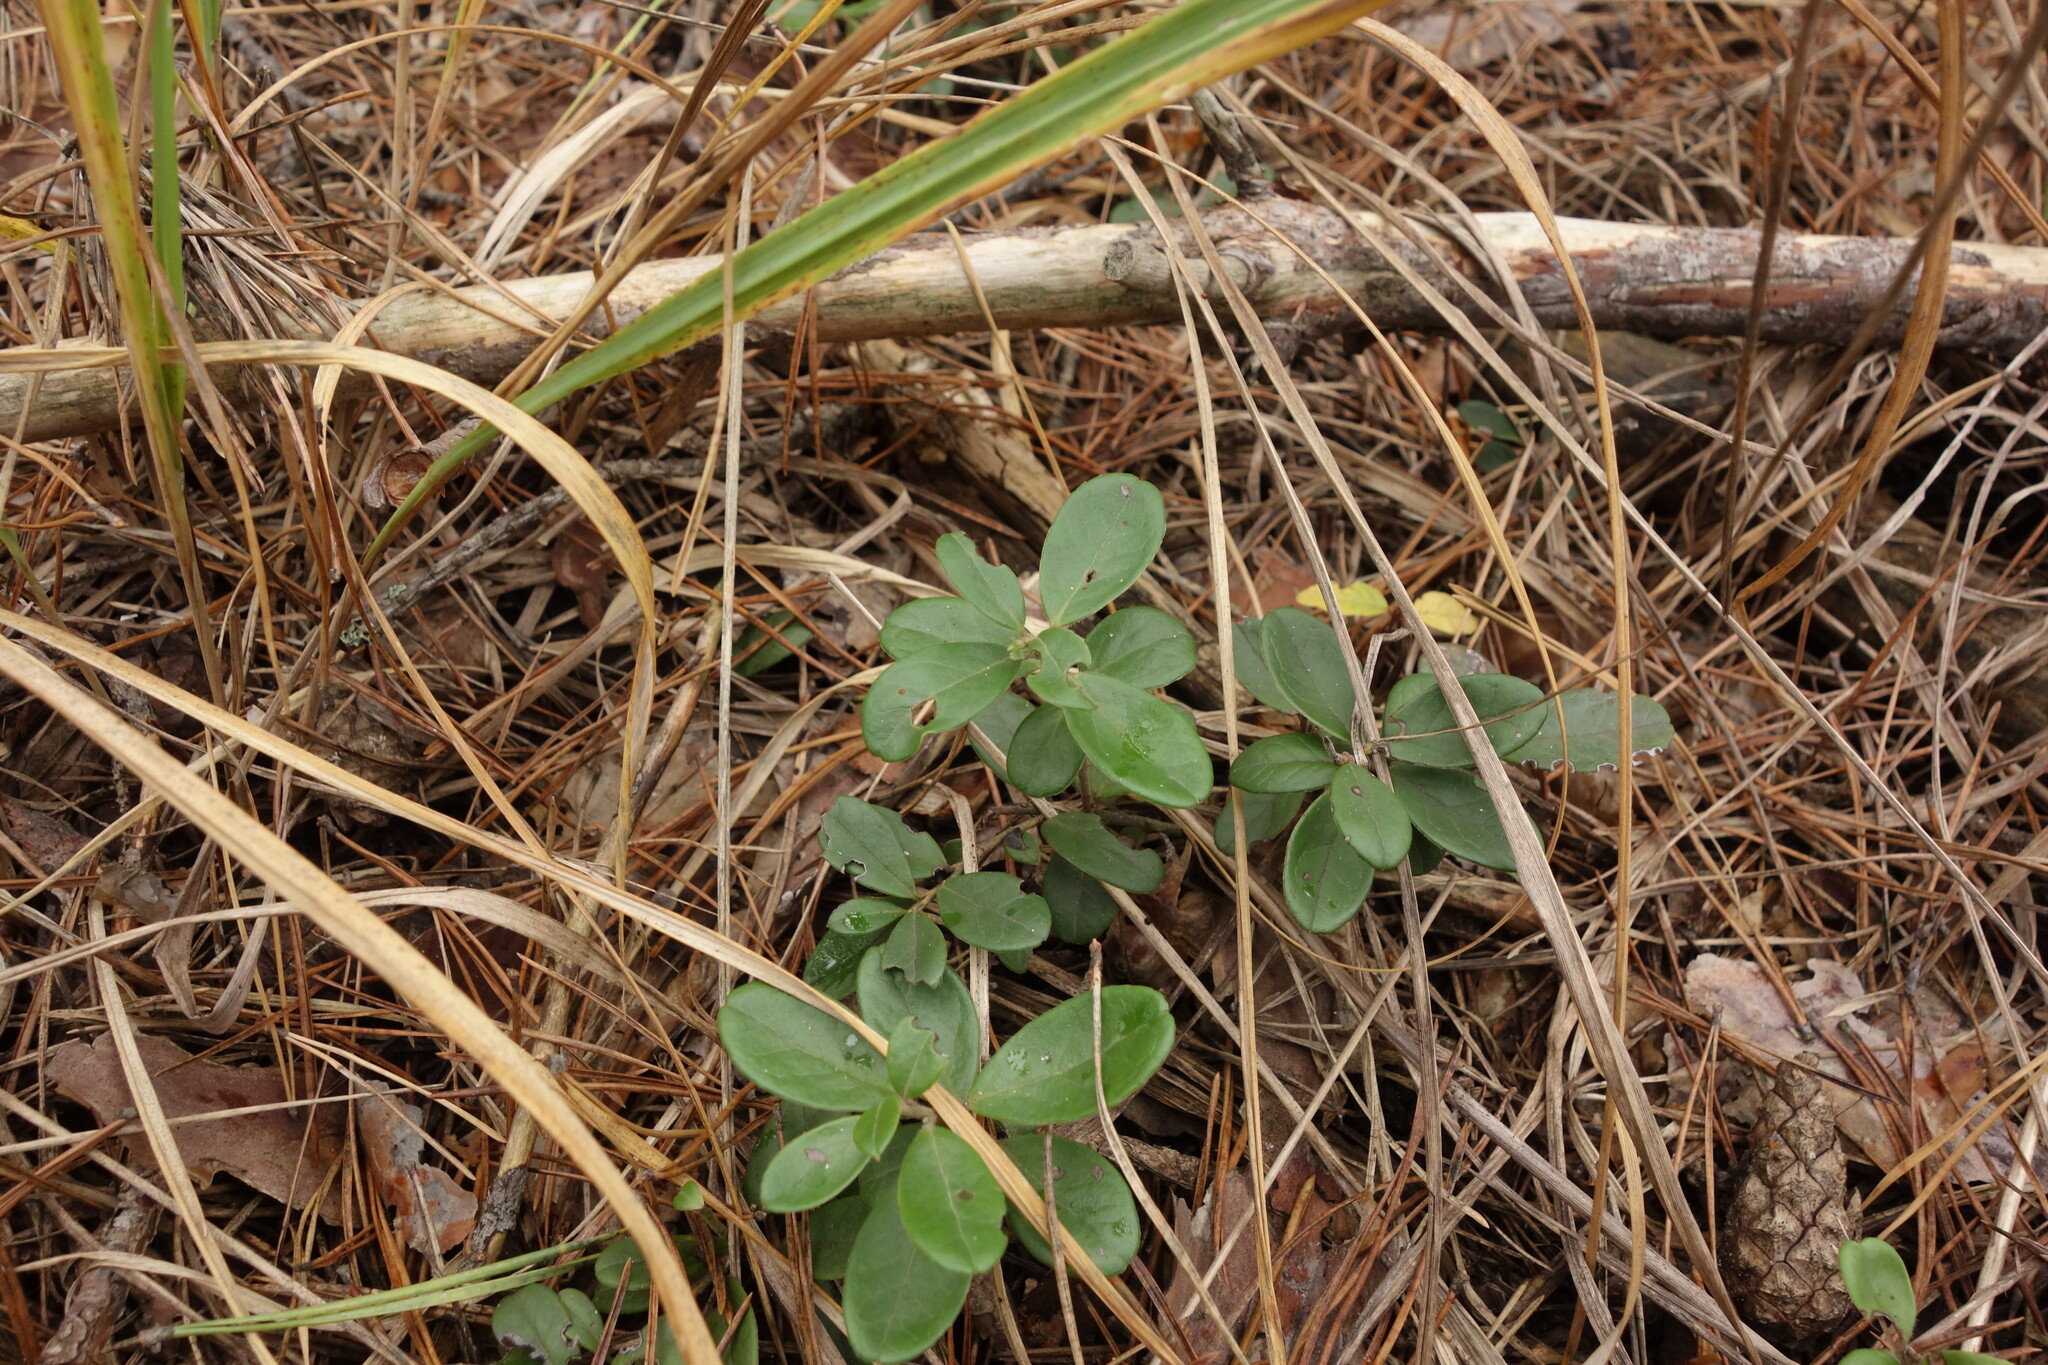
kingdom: Plantae
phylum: Tracheophyta
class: Magnoliopsida
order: Ericales
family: Ericaceae
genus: Vaccinium
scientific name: Vaccinium vitis-idaea
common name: Cowberry
